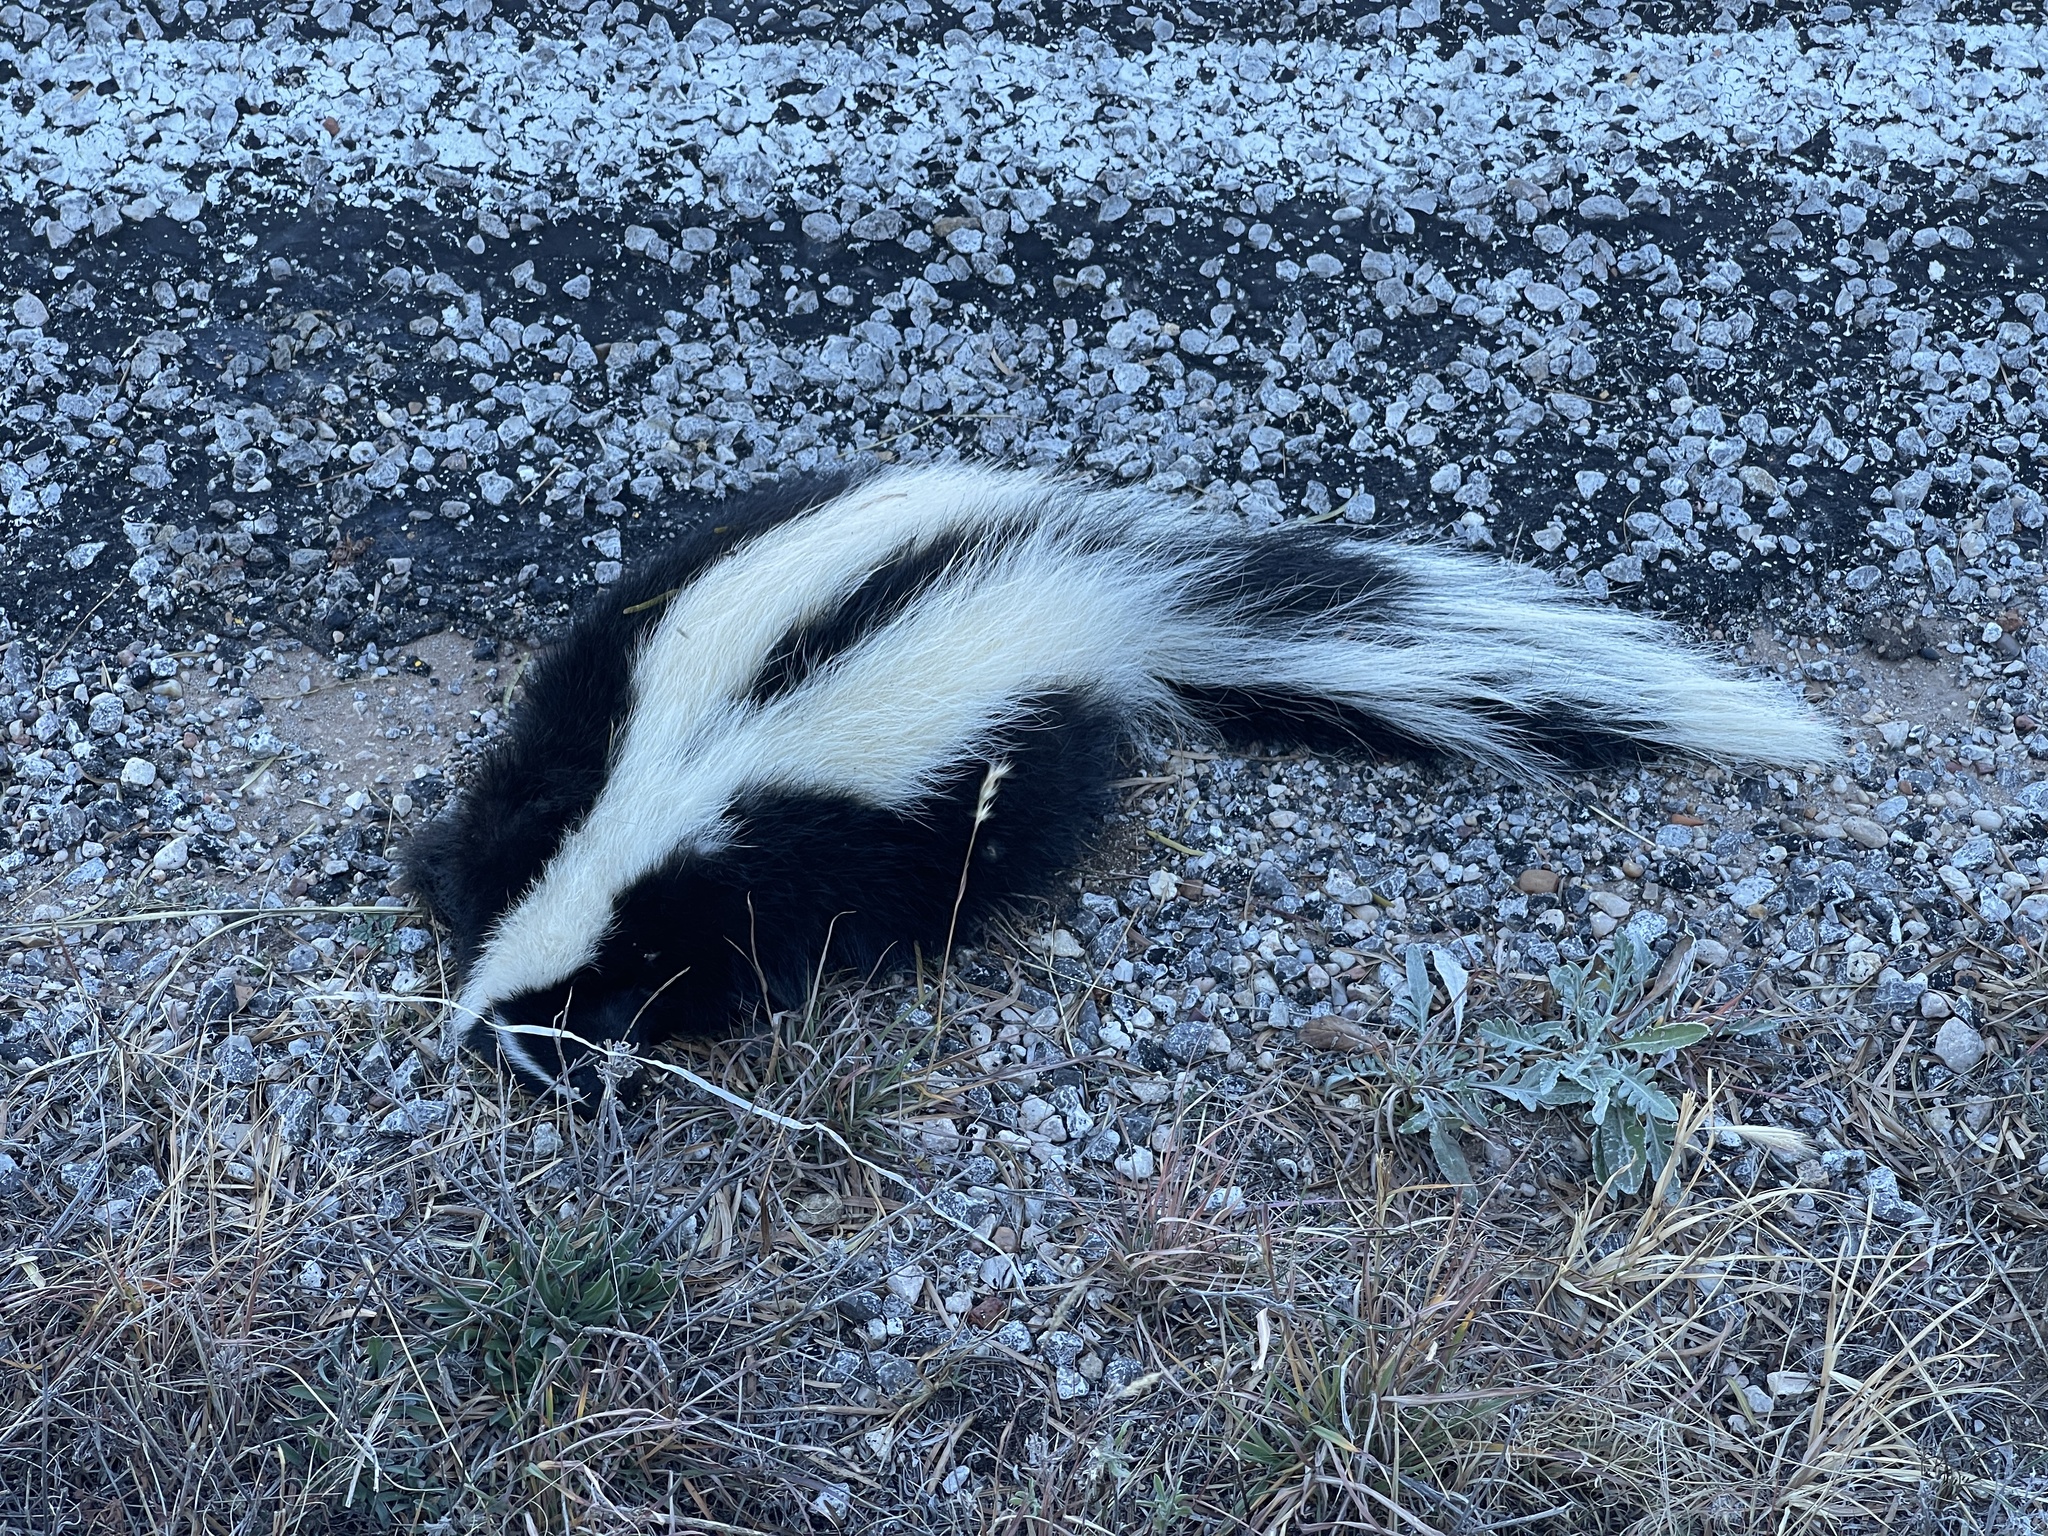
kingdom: Animalia
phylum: Chordata
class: Mammalia
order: Carnivora
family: Mephitidae
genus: Mephitis
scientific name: Mephitis mephitis
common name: Striped skunk
